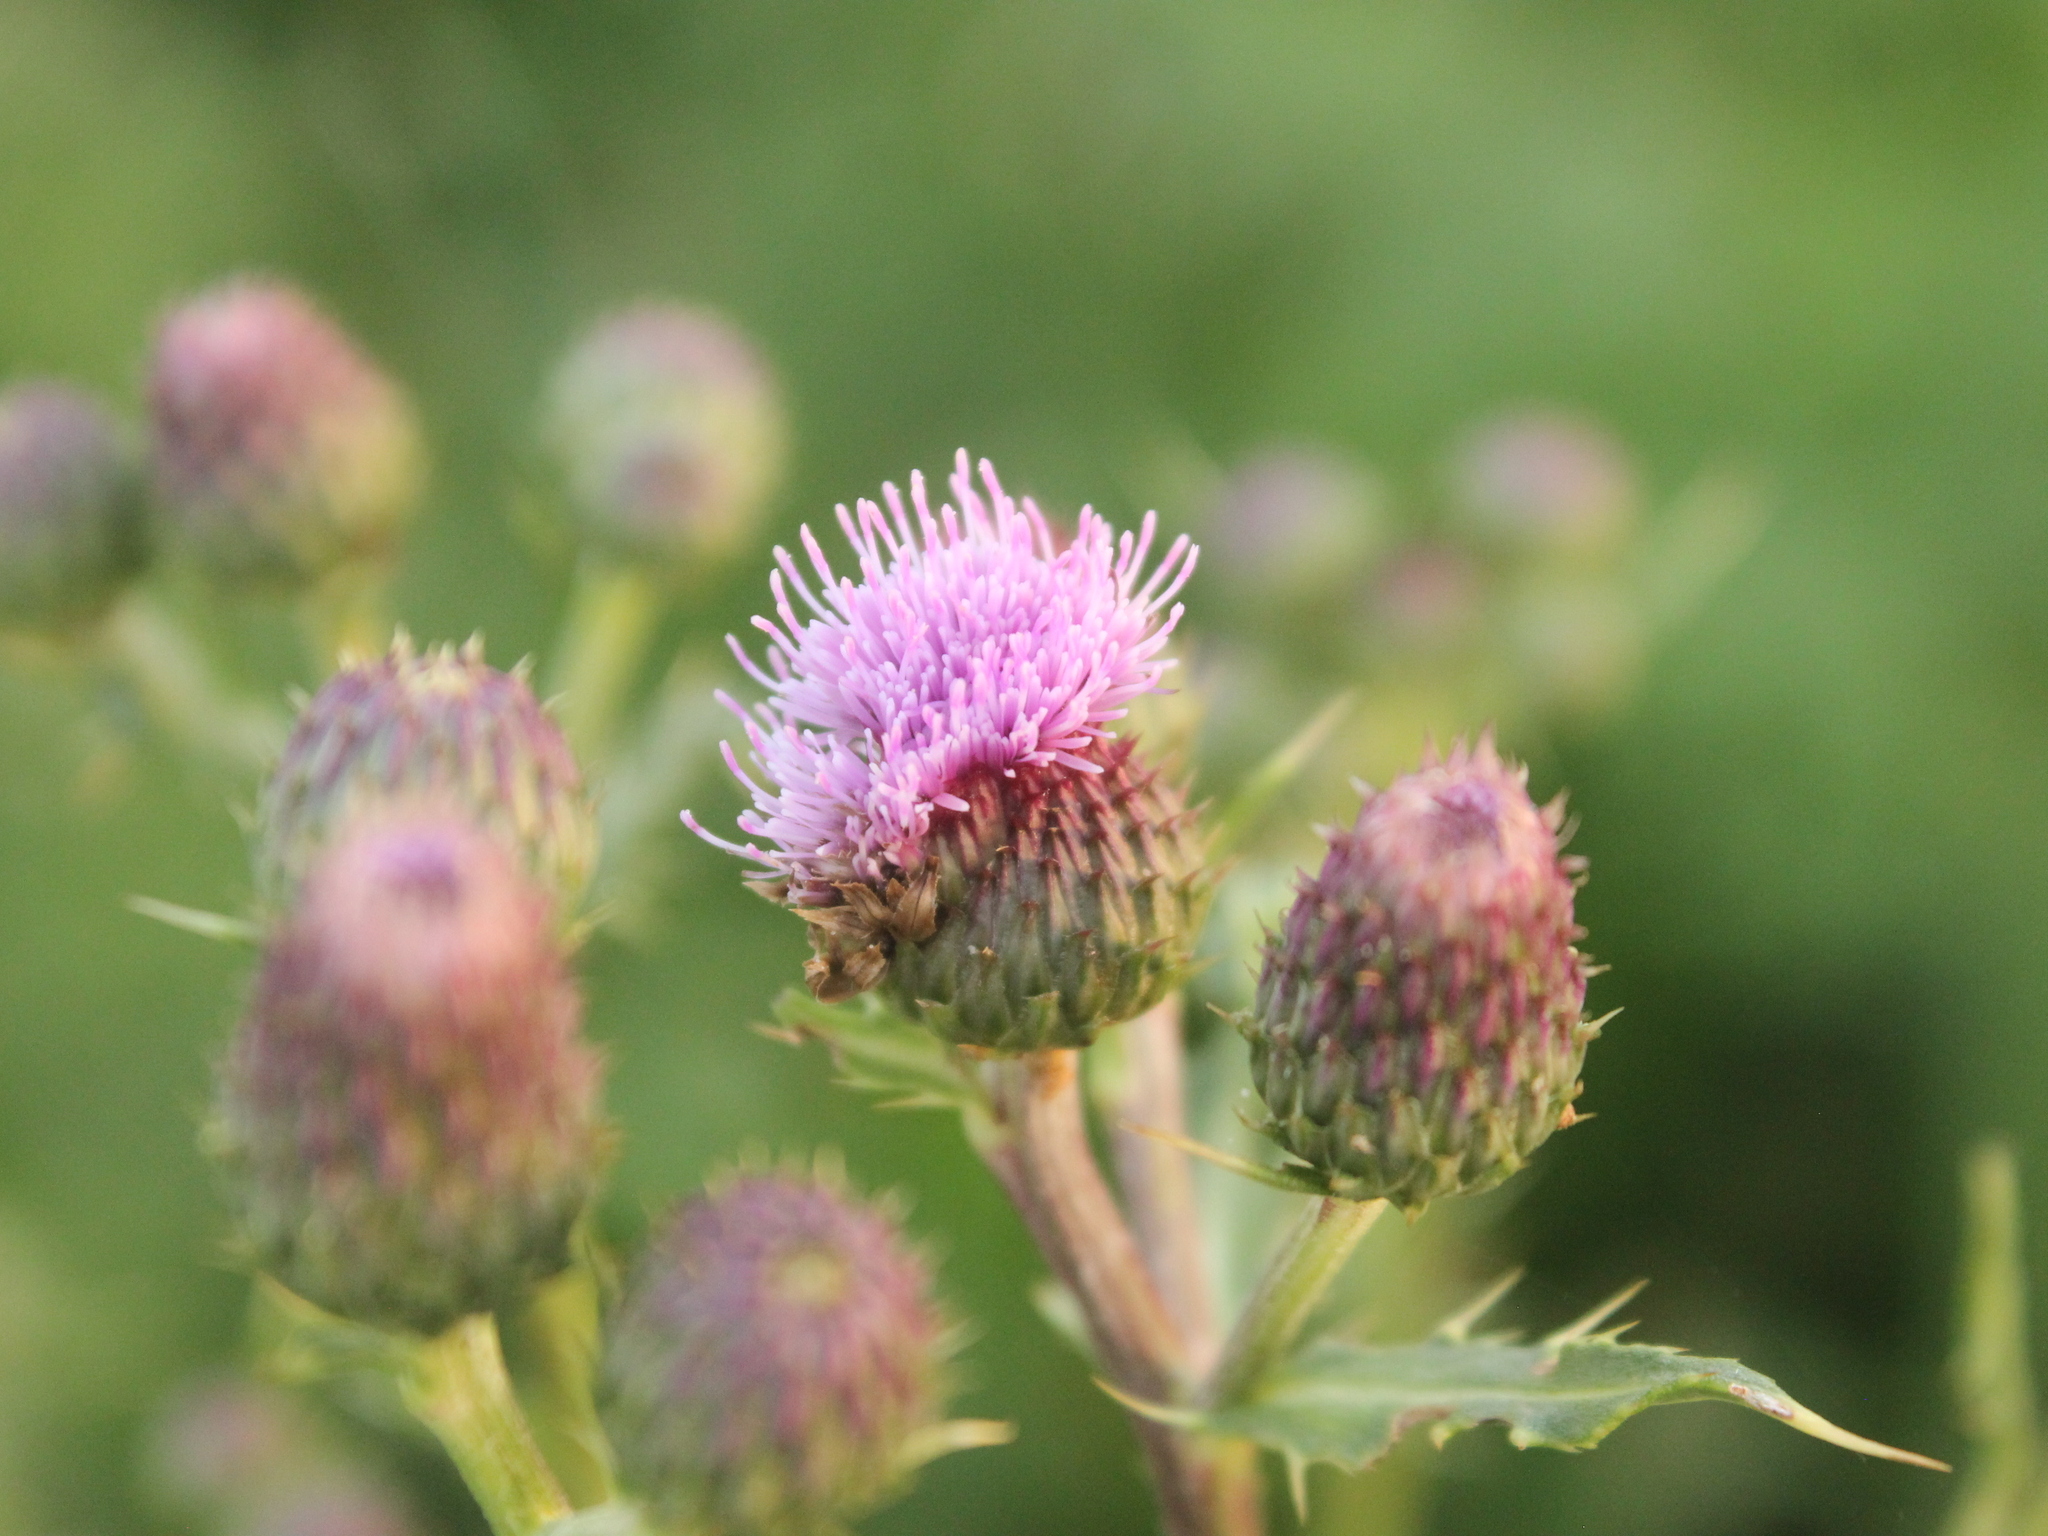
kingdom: Plantae
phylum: Tracheophyta
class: Magnoliopsida
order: Asterales
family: Asteraceae
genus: Cirsium
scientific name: Cirsium arvense
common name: Creeping thistle
